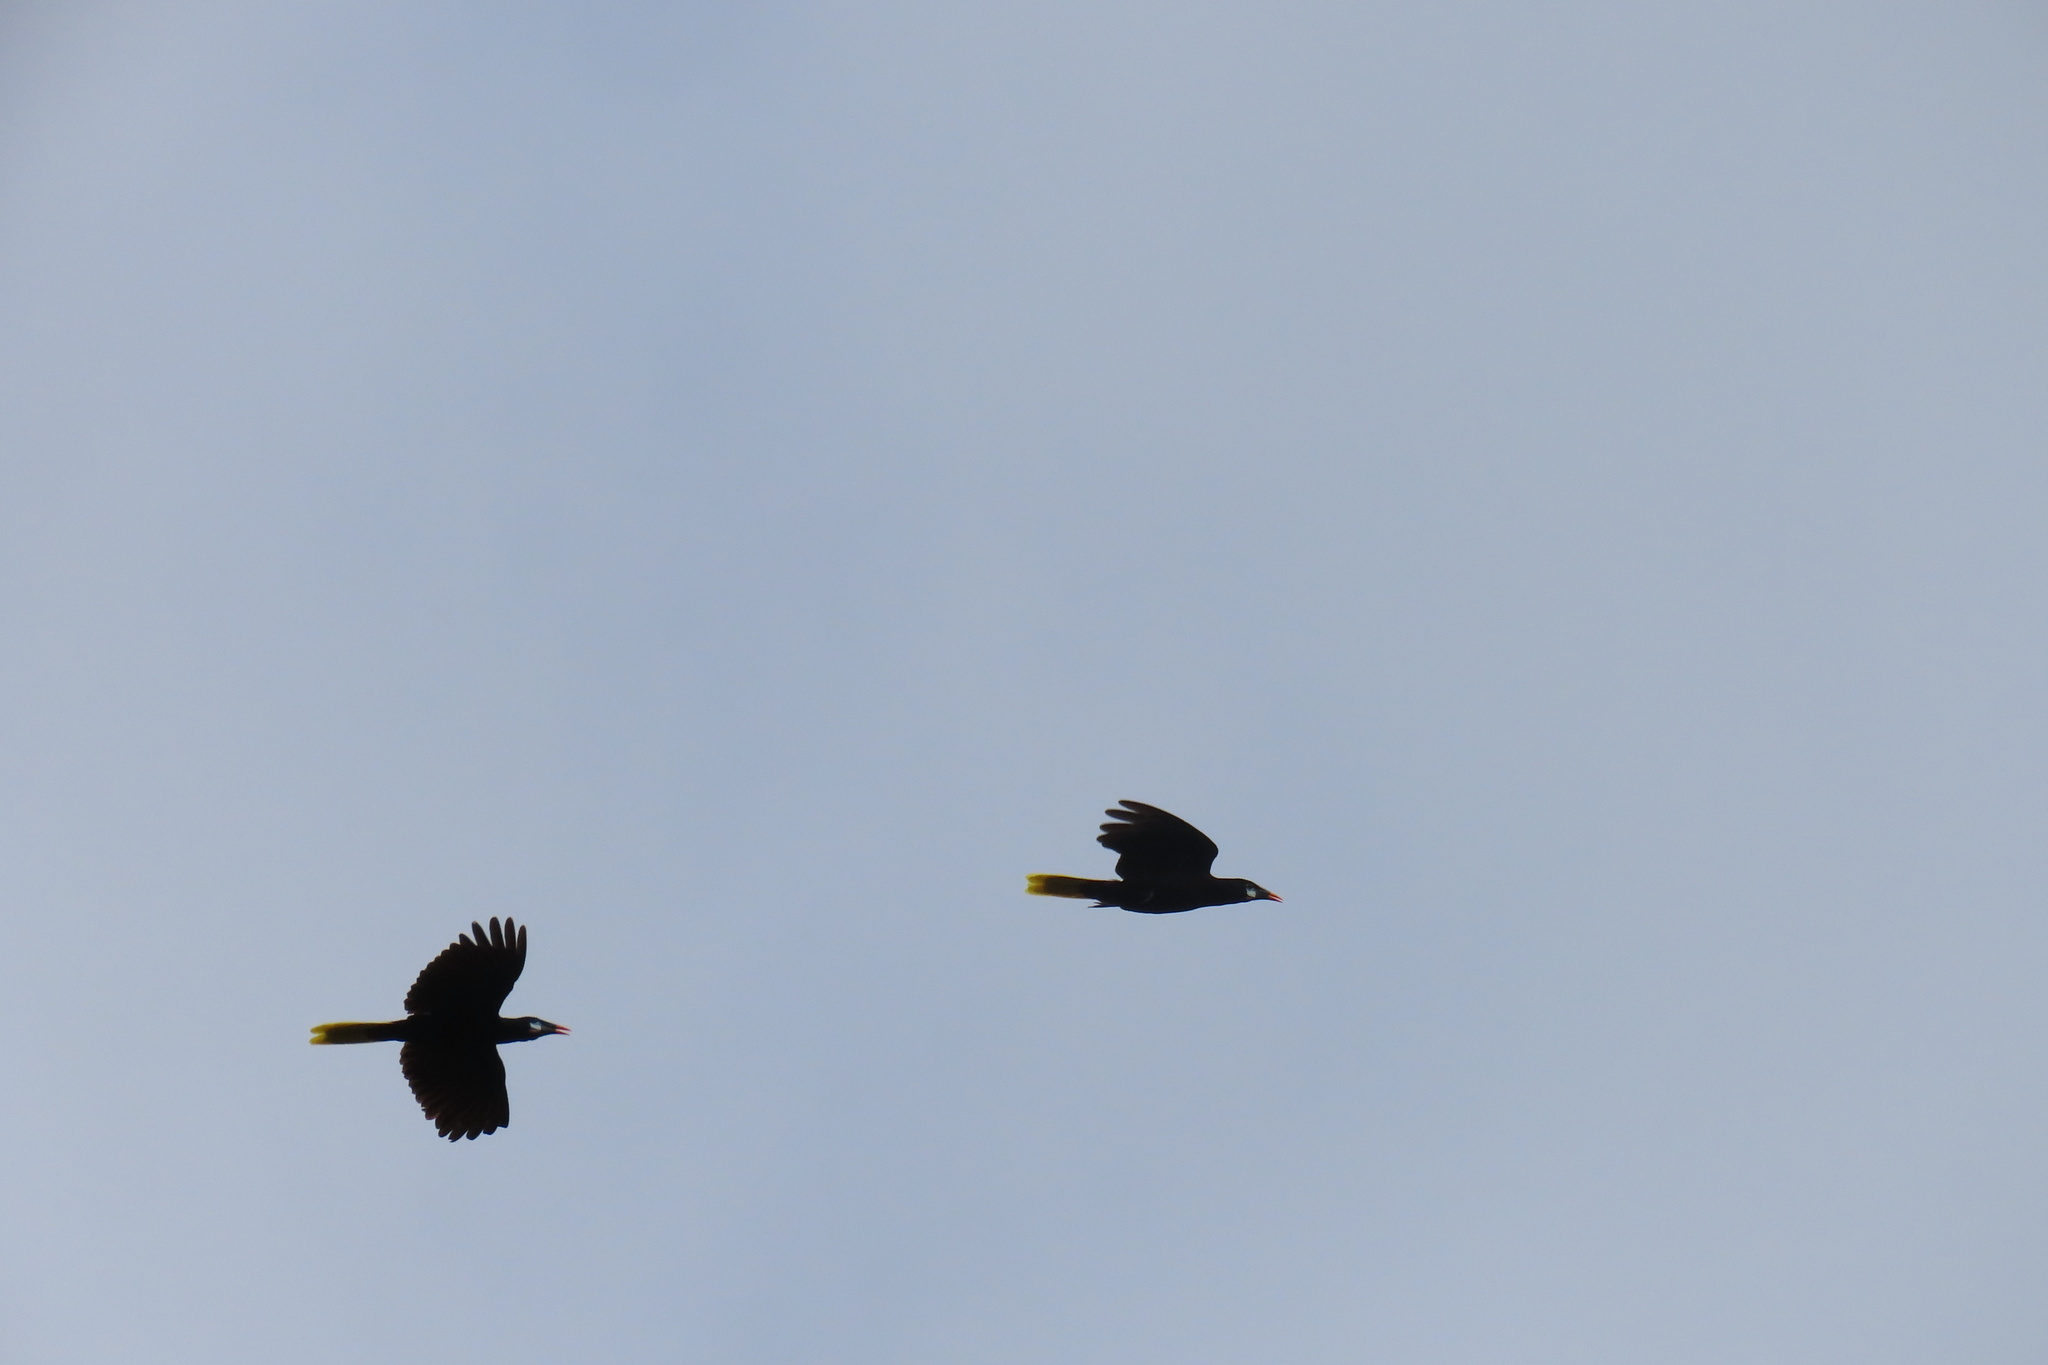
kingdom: Animalia
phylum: Chordata
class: Aves
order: Passeriformes
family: Icteridae
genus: Psarocolius
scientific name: Psarocolius montezuma
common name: Montezuma oropendola
